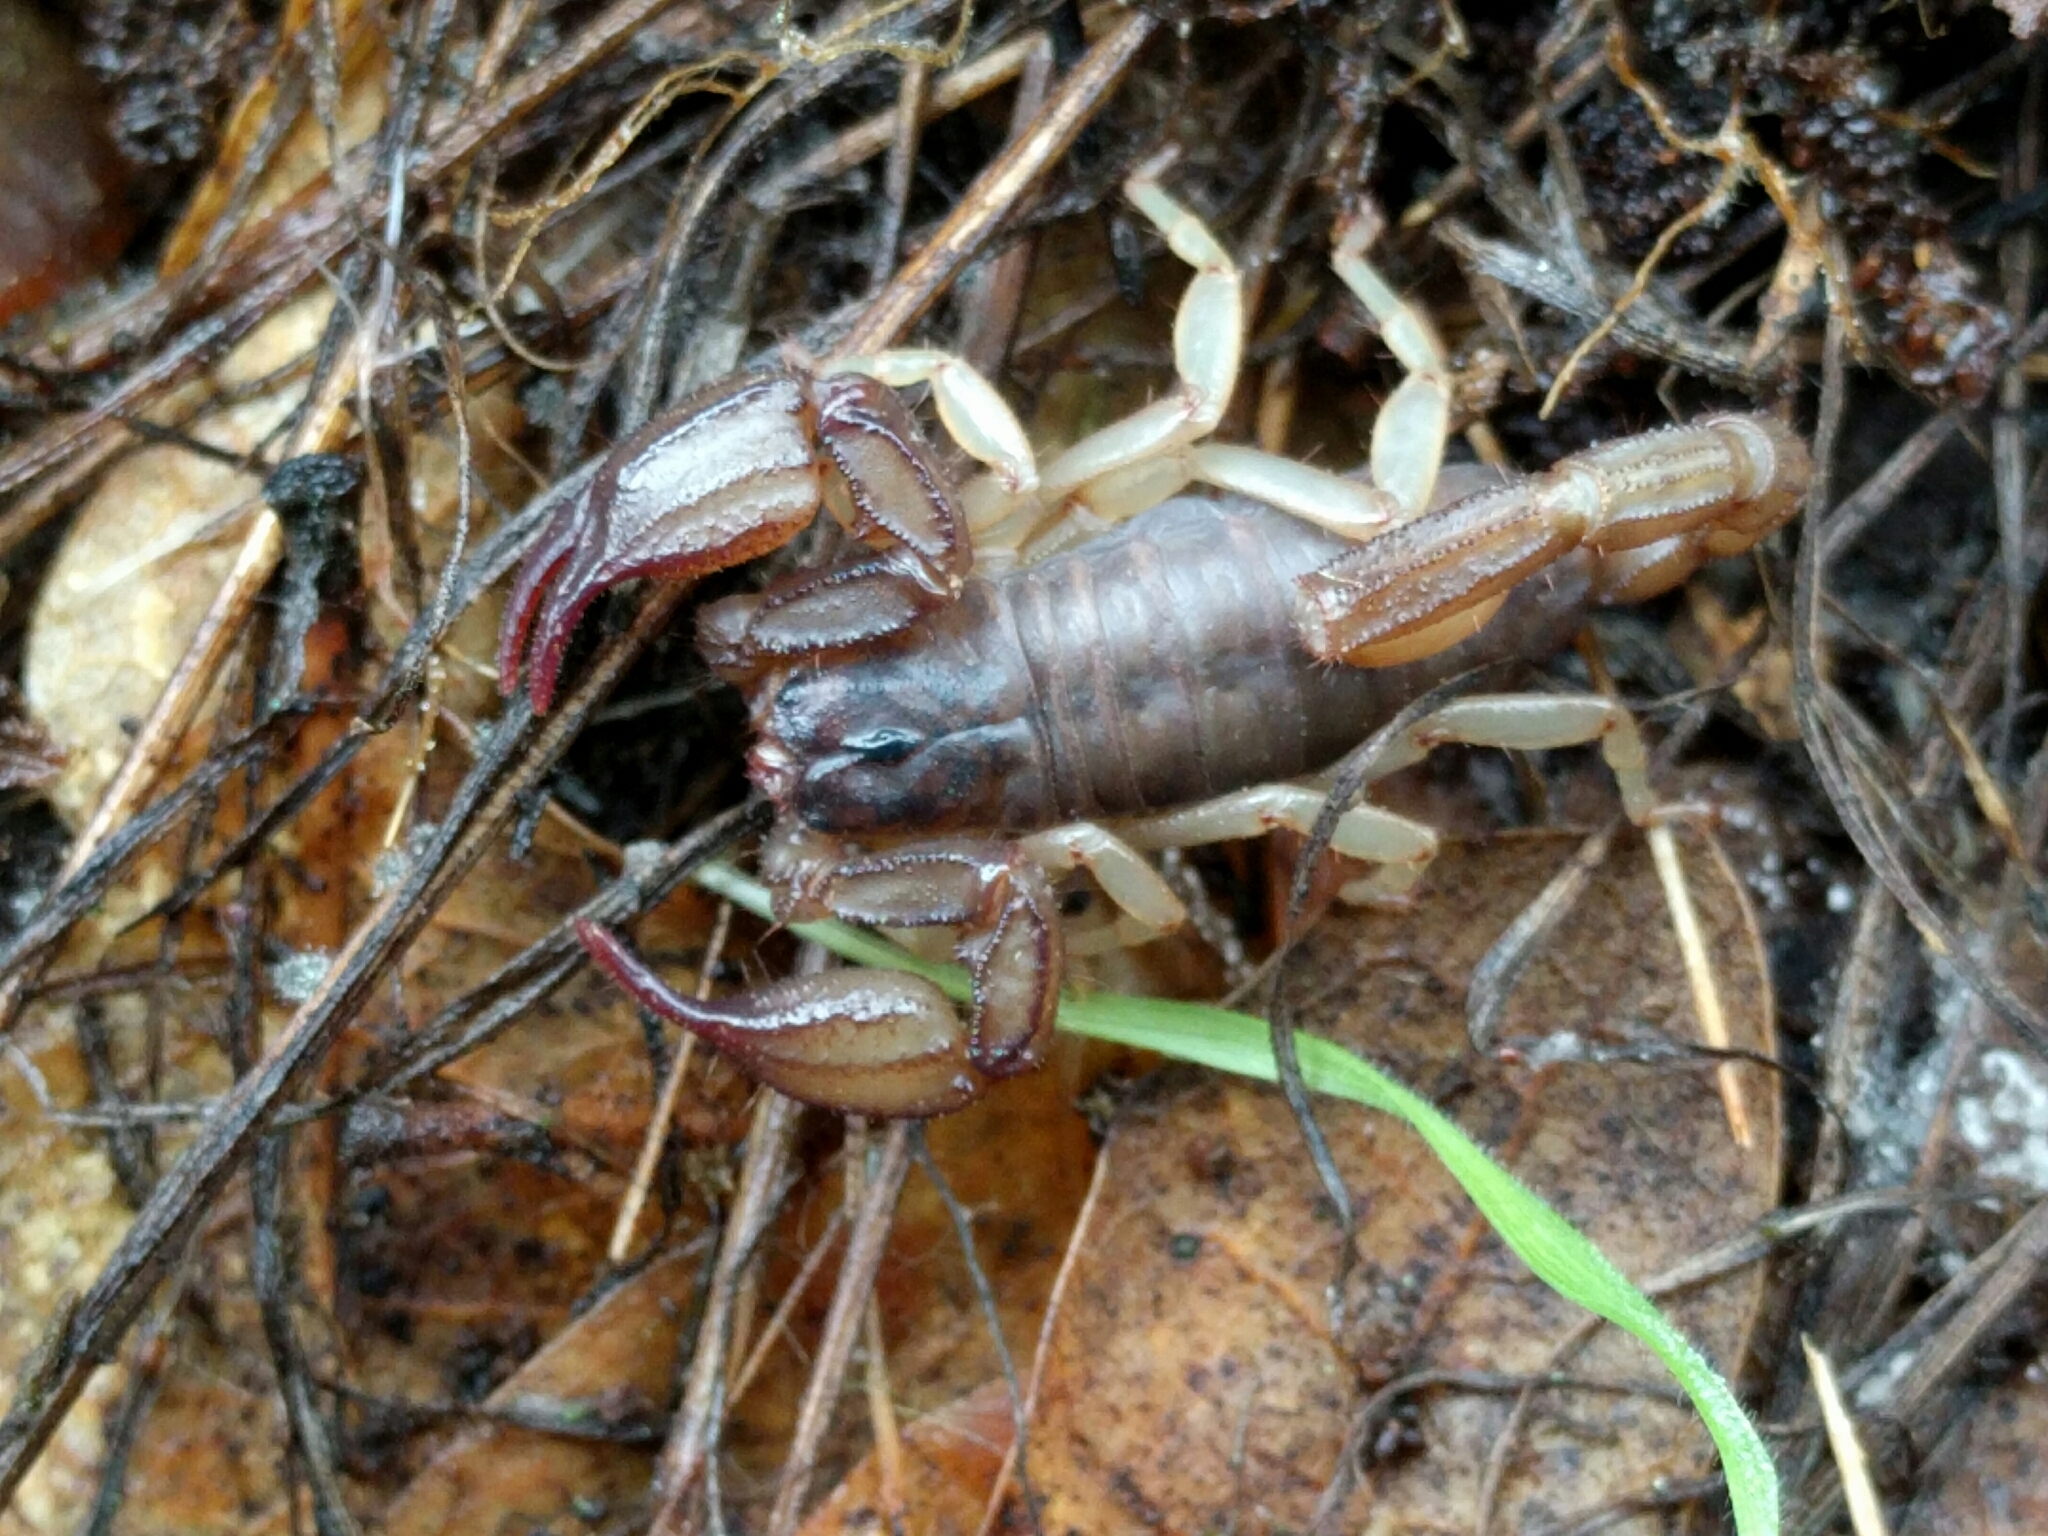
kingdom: Animalia
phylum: Arthropoda
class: Arachnida
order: Scorpiones
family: Chactidae
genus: Uroctonus
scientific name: Uroctonus mordax
